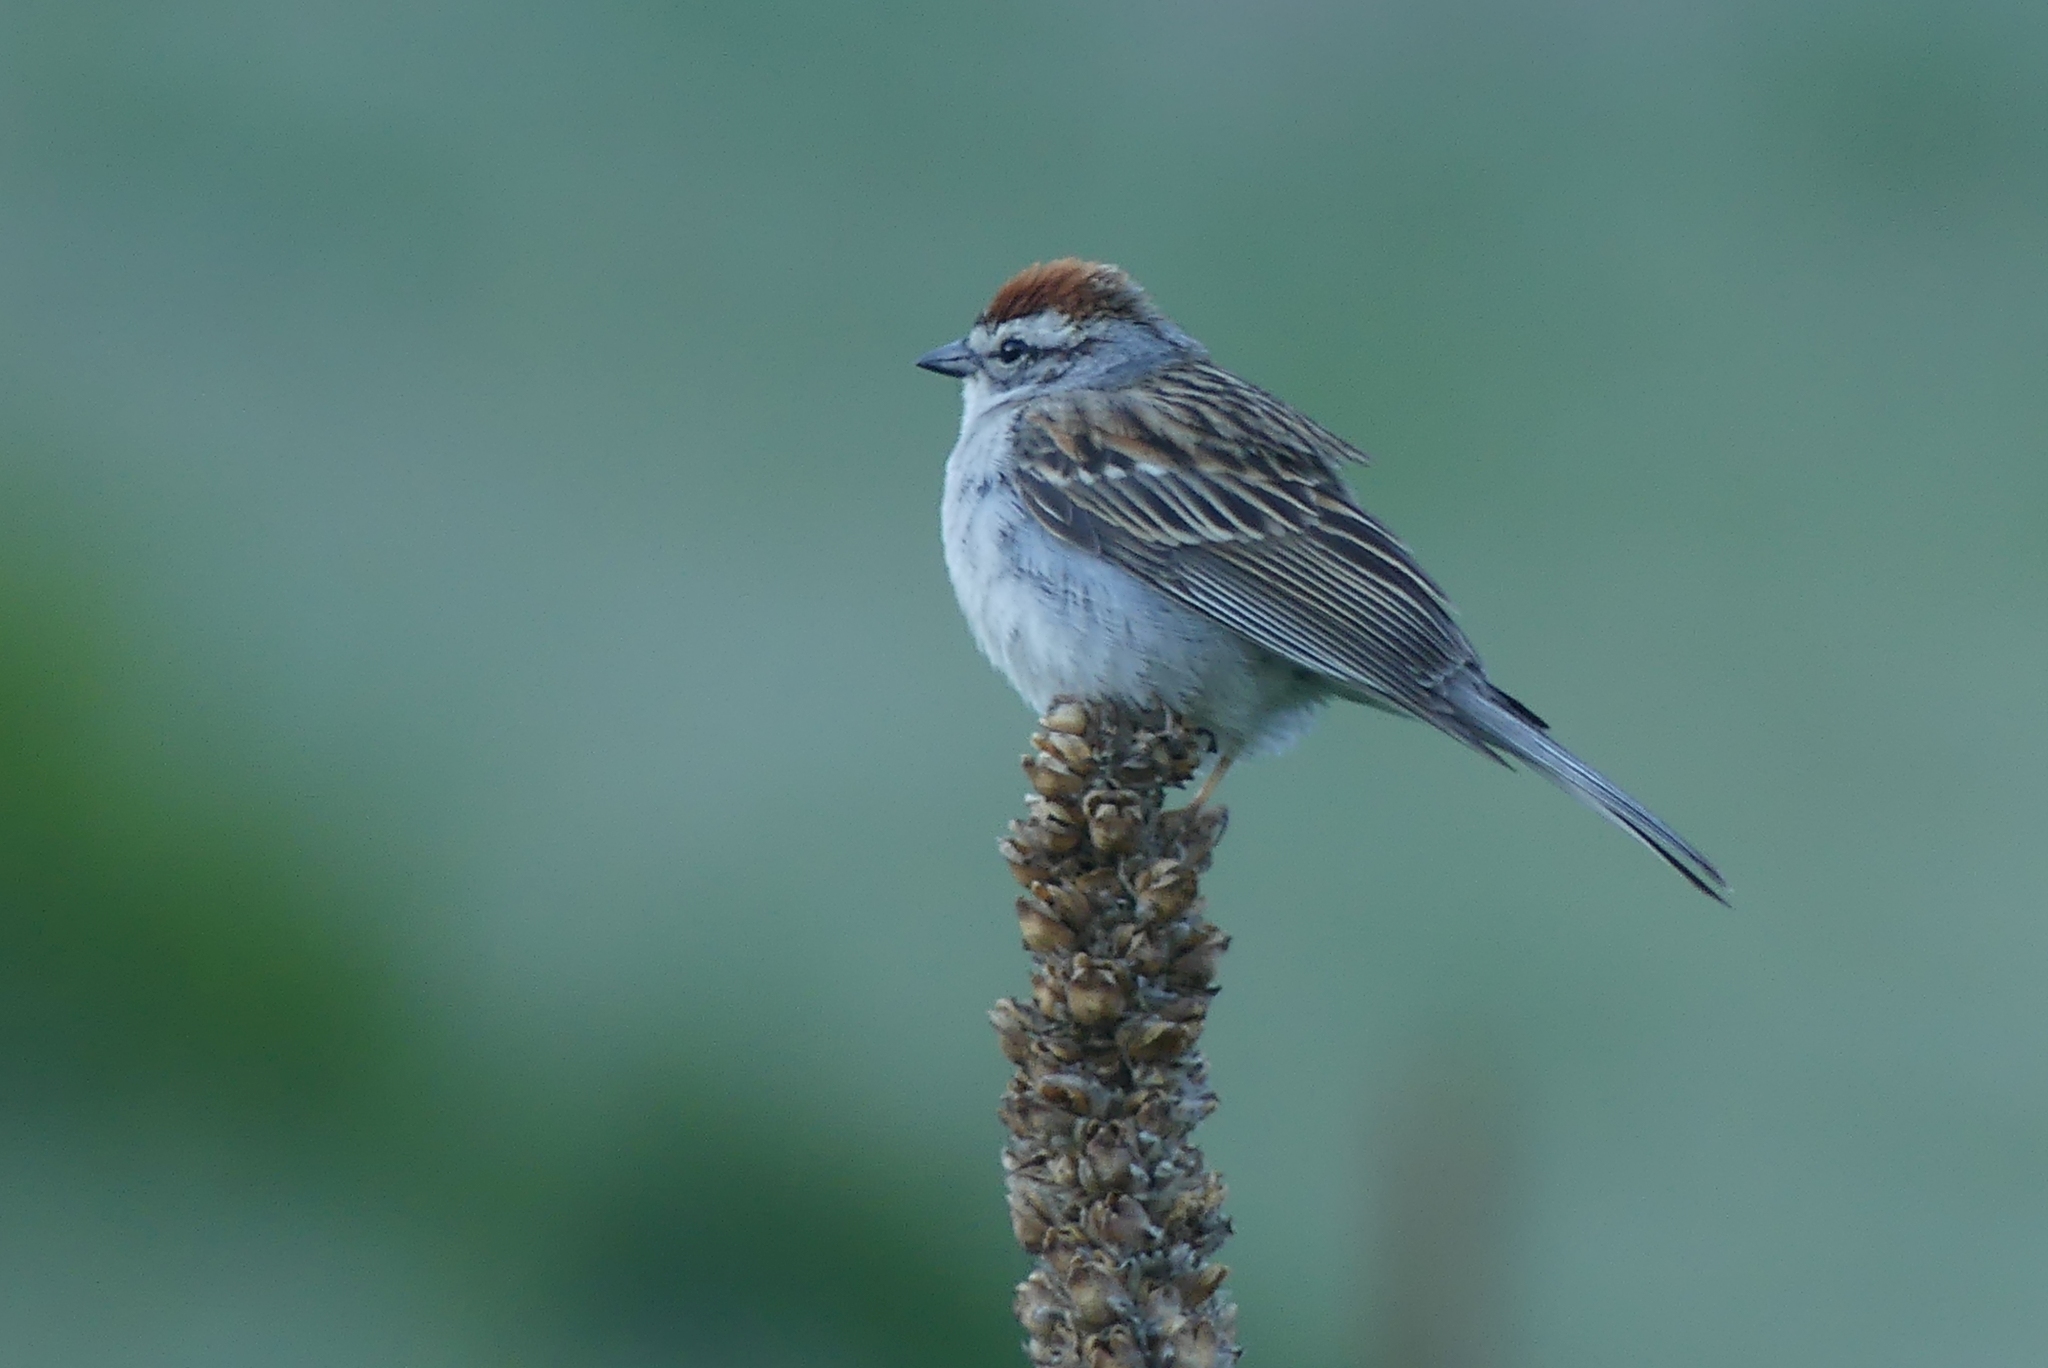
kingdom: Animalia
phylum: Chordata
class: Aves
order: Passeriformes
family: Passerellidae
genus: Spizella
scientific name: Spizella passerina
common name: Chipping sparrow
